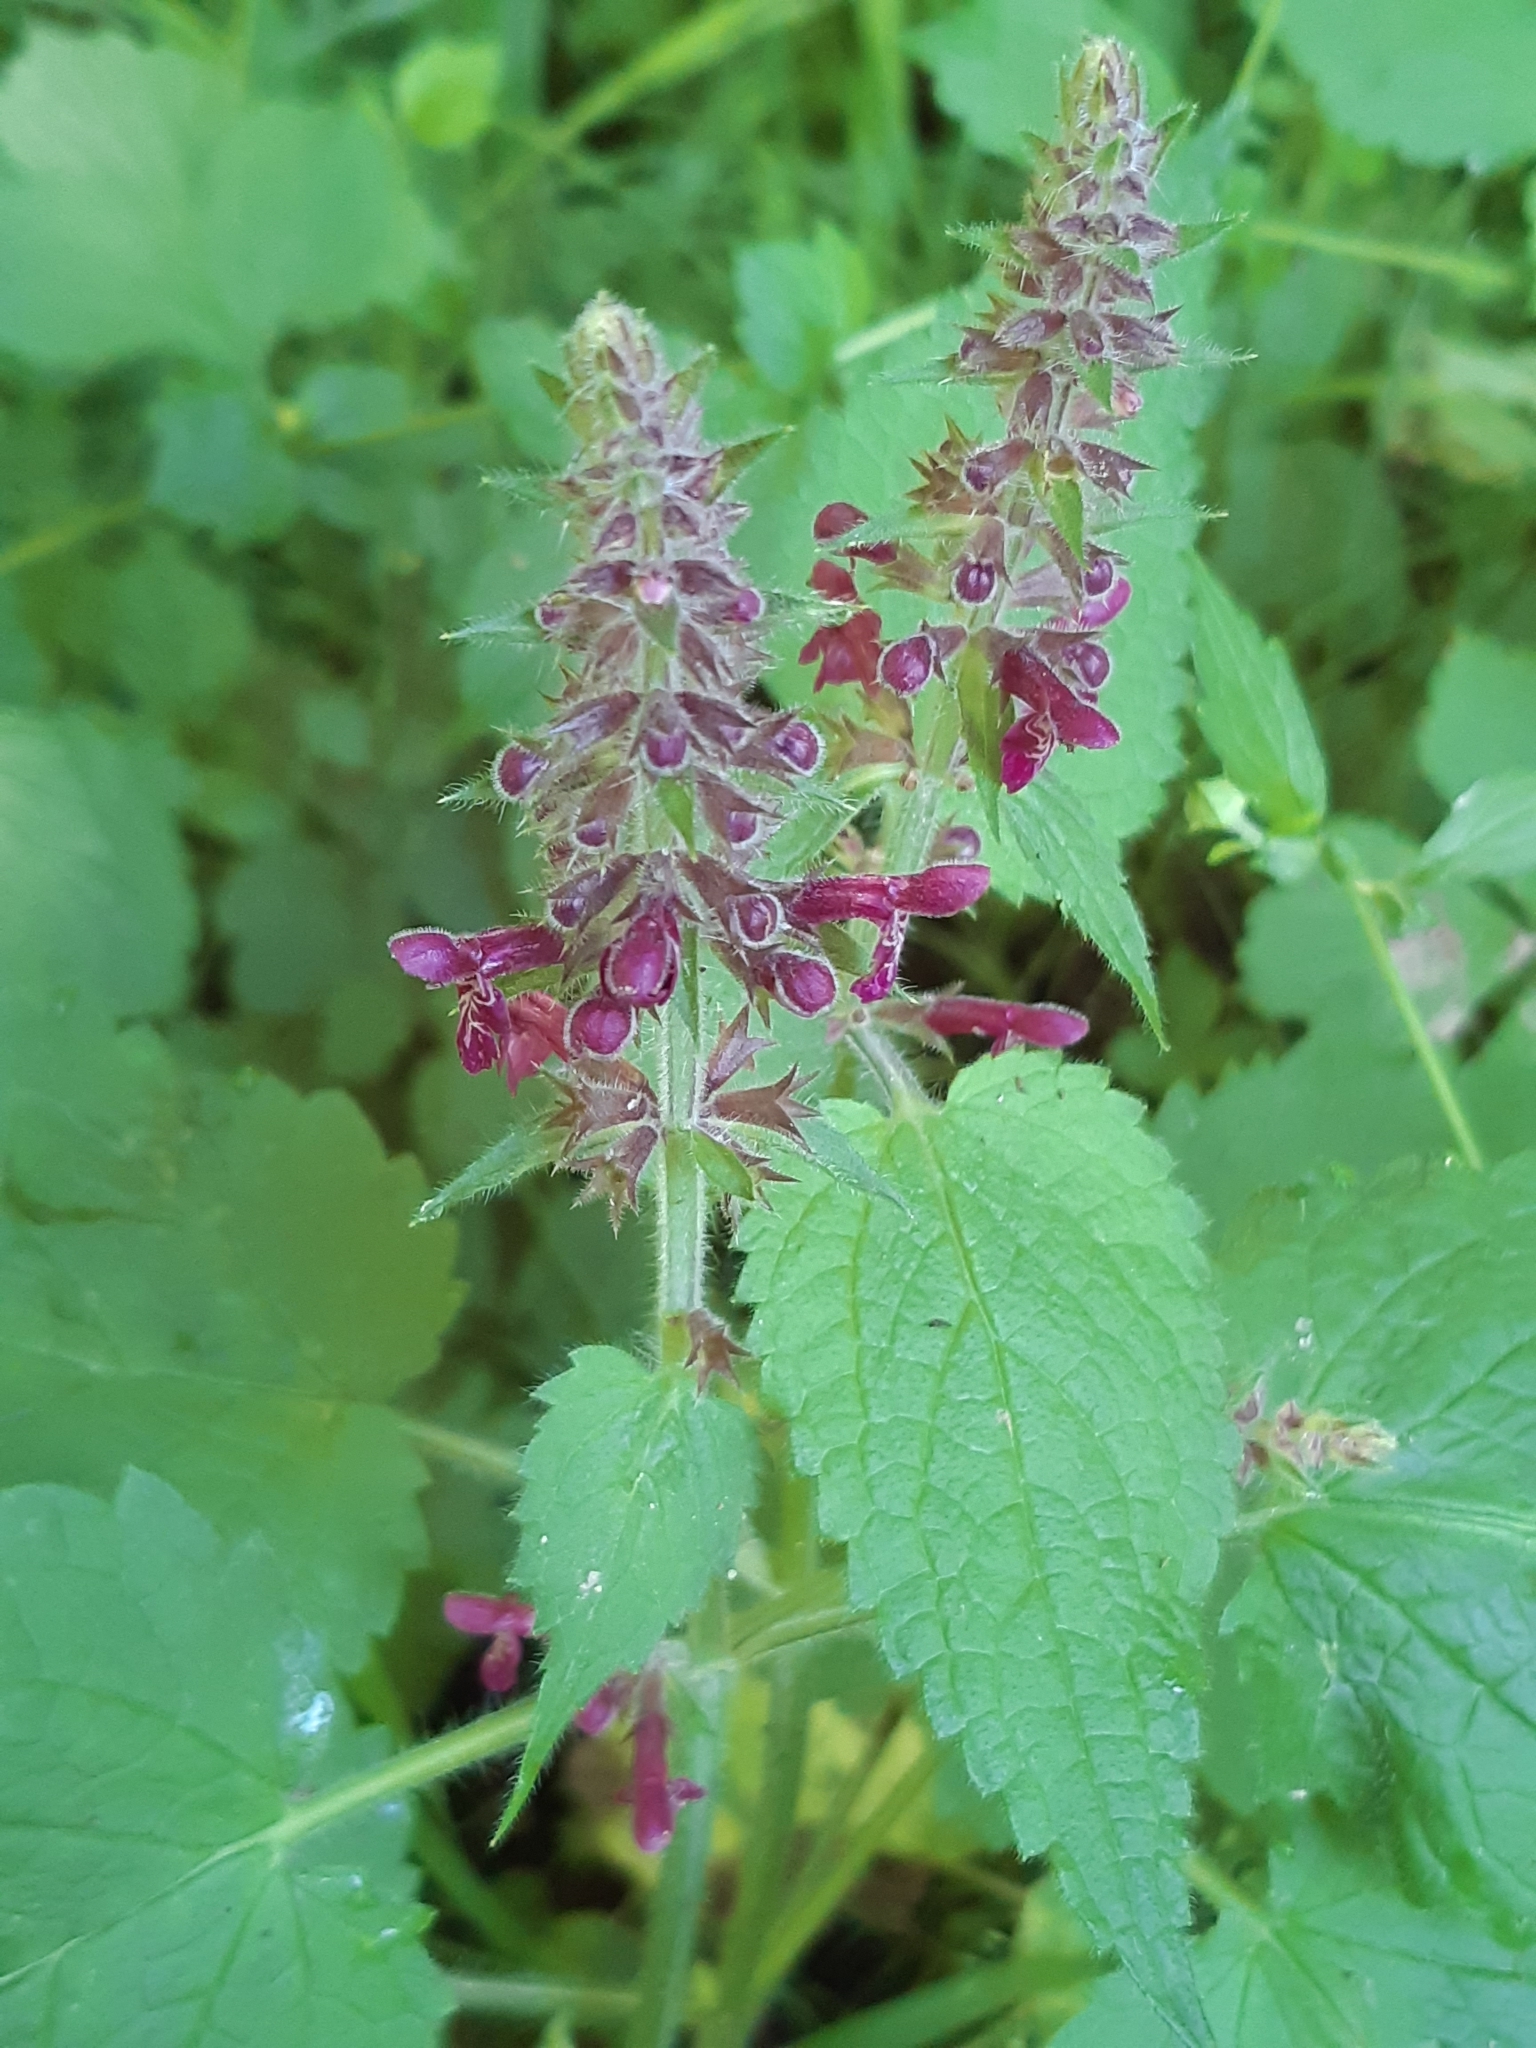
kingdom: Plantae
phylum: Tracheophyta
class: Magnoliopsida
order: Lamiales
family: Lamiaceae
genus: Stachys
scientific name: Stachys sylvatica
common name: Hedge woundwort
